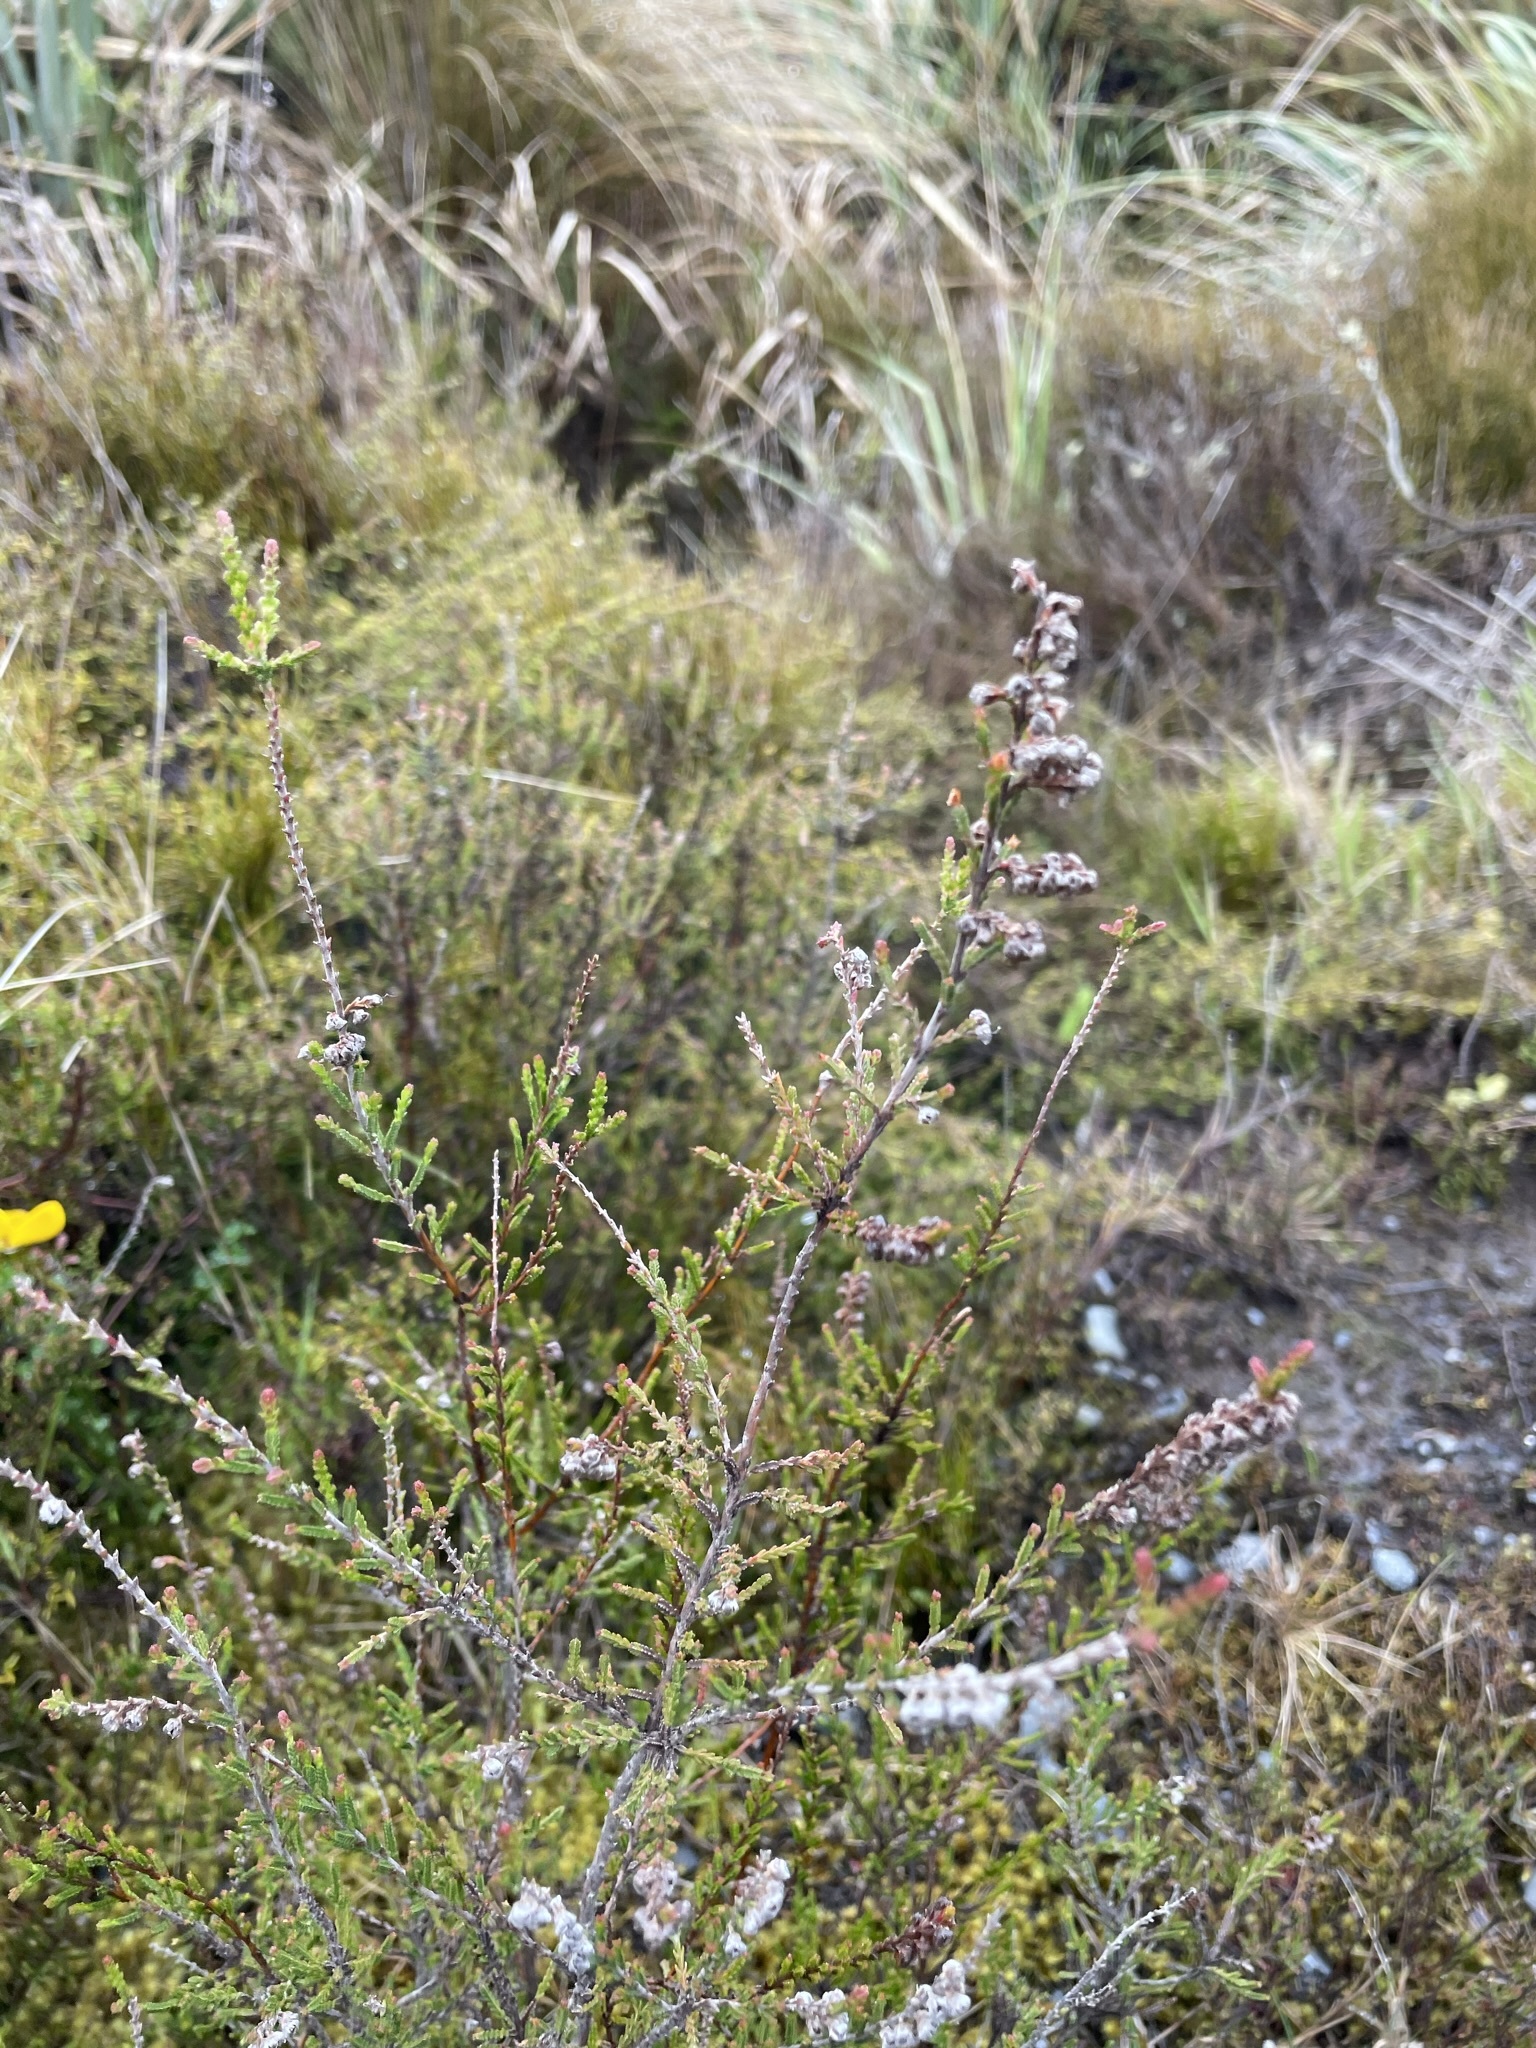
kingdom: Plantae
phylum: Tracheophyta
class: Magnoliopsida
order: Ericales
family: Ericaceae
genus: Calluna
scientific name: Calluna vulgaris
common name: Heather
